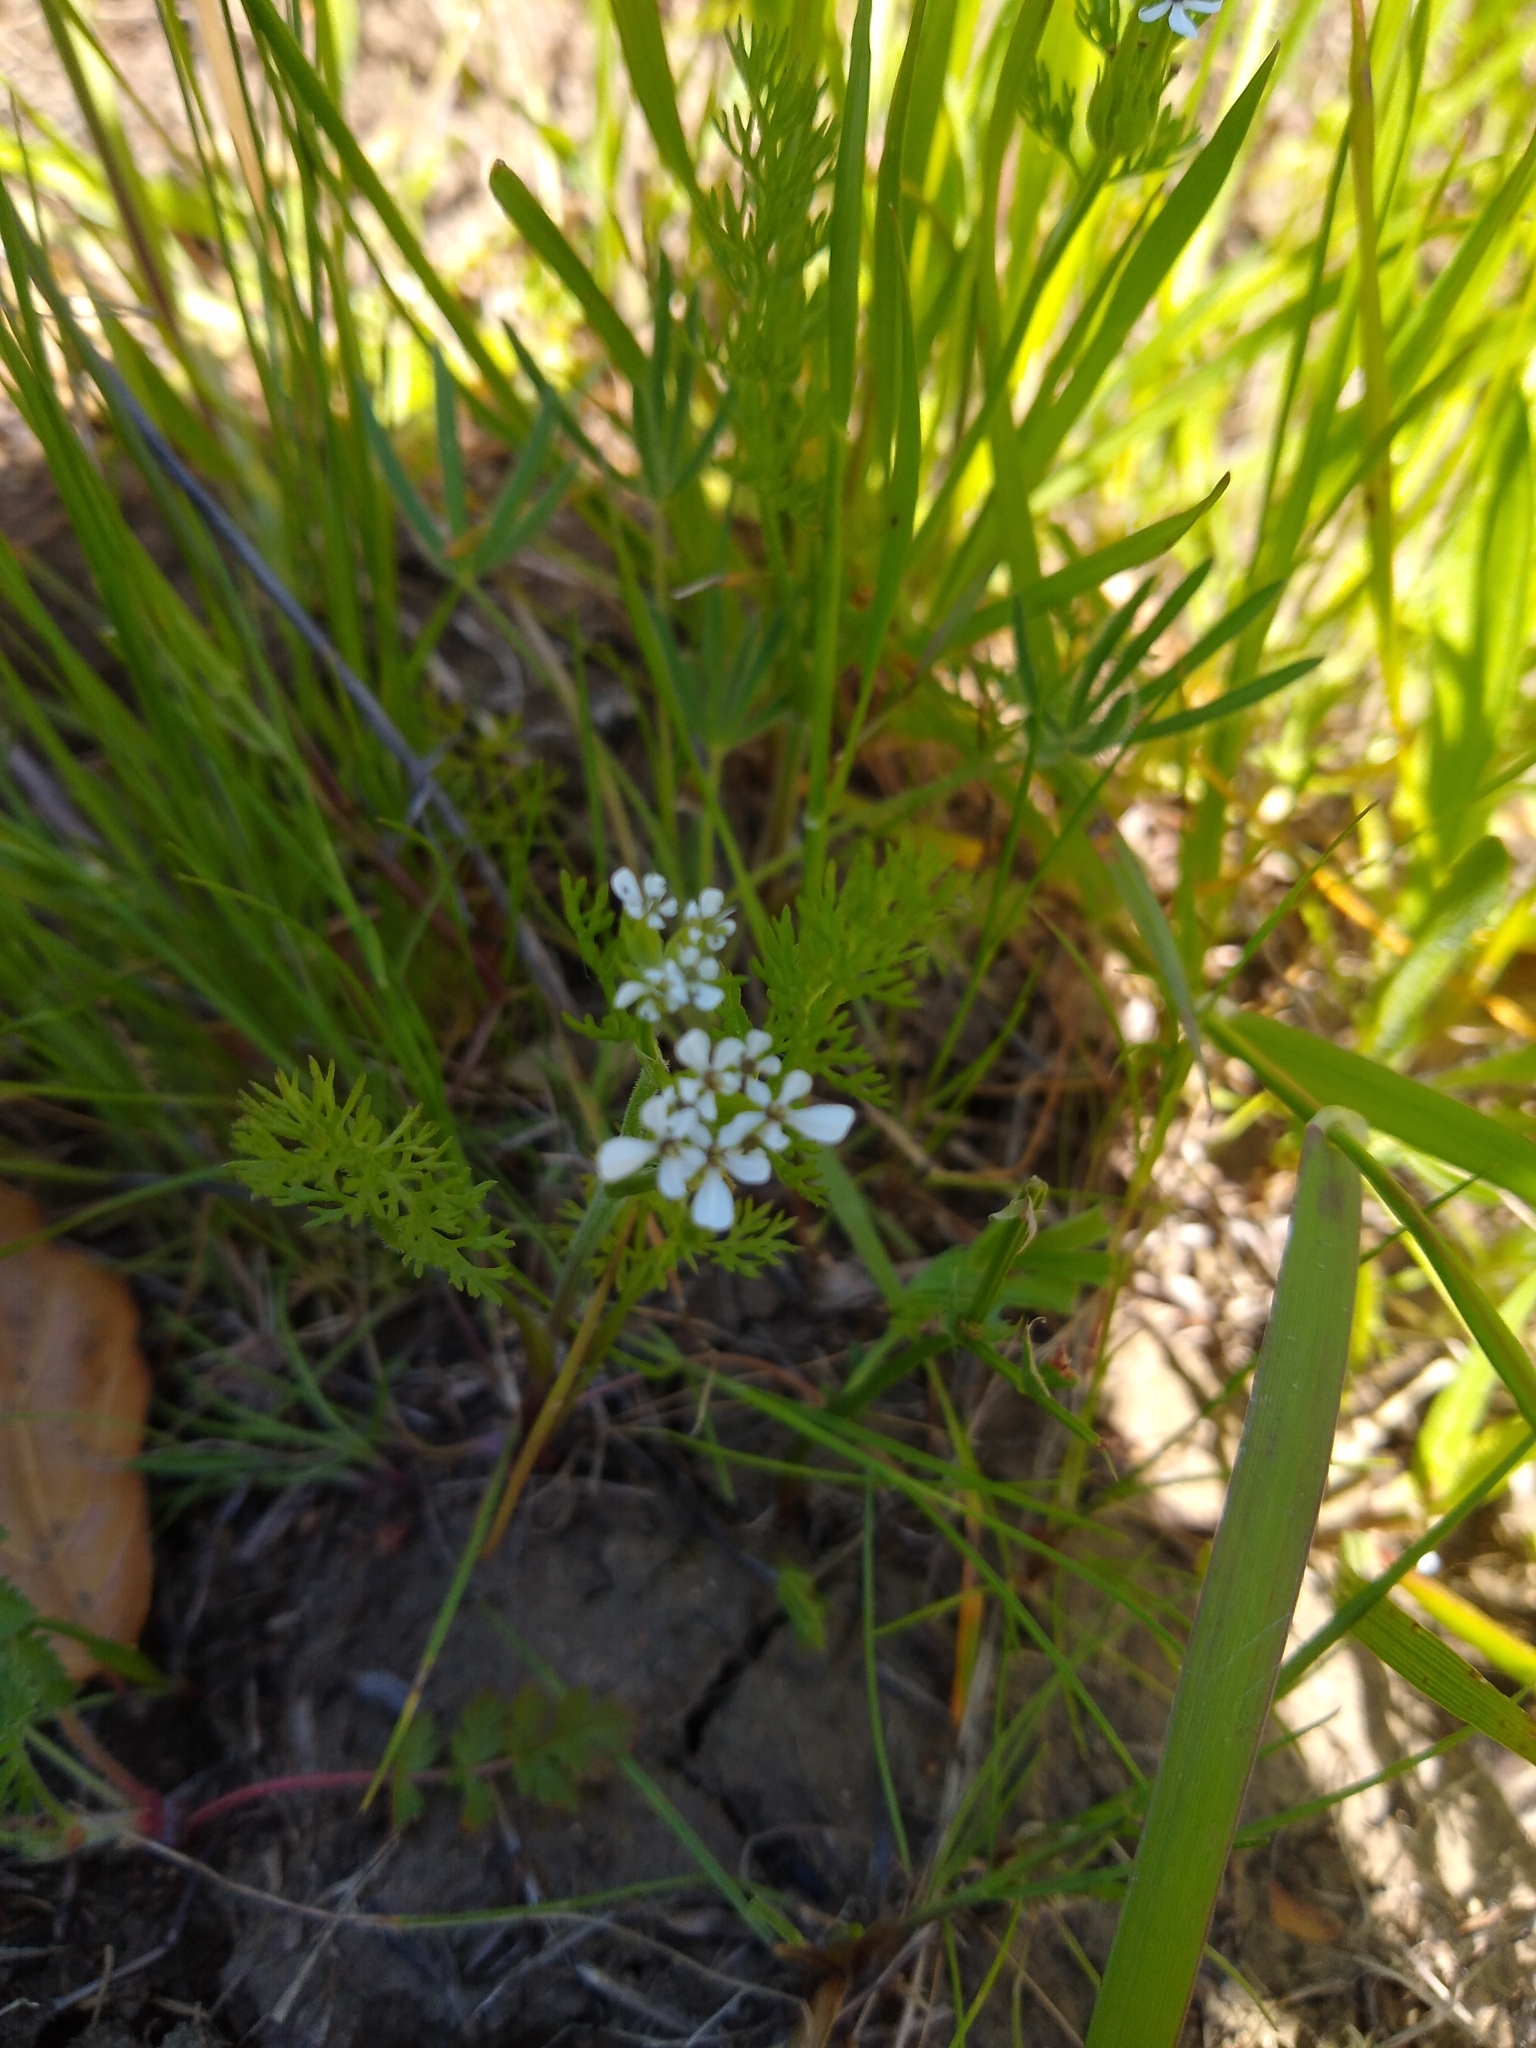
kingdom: Plantae
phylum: Tracheophyta
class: Magnoliopsida
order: Apiales
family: Apiaceae
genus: Scandix
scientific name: Scandix pecten-veneris
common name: Shepherd's-needle
